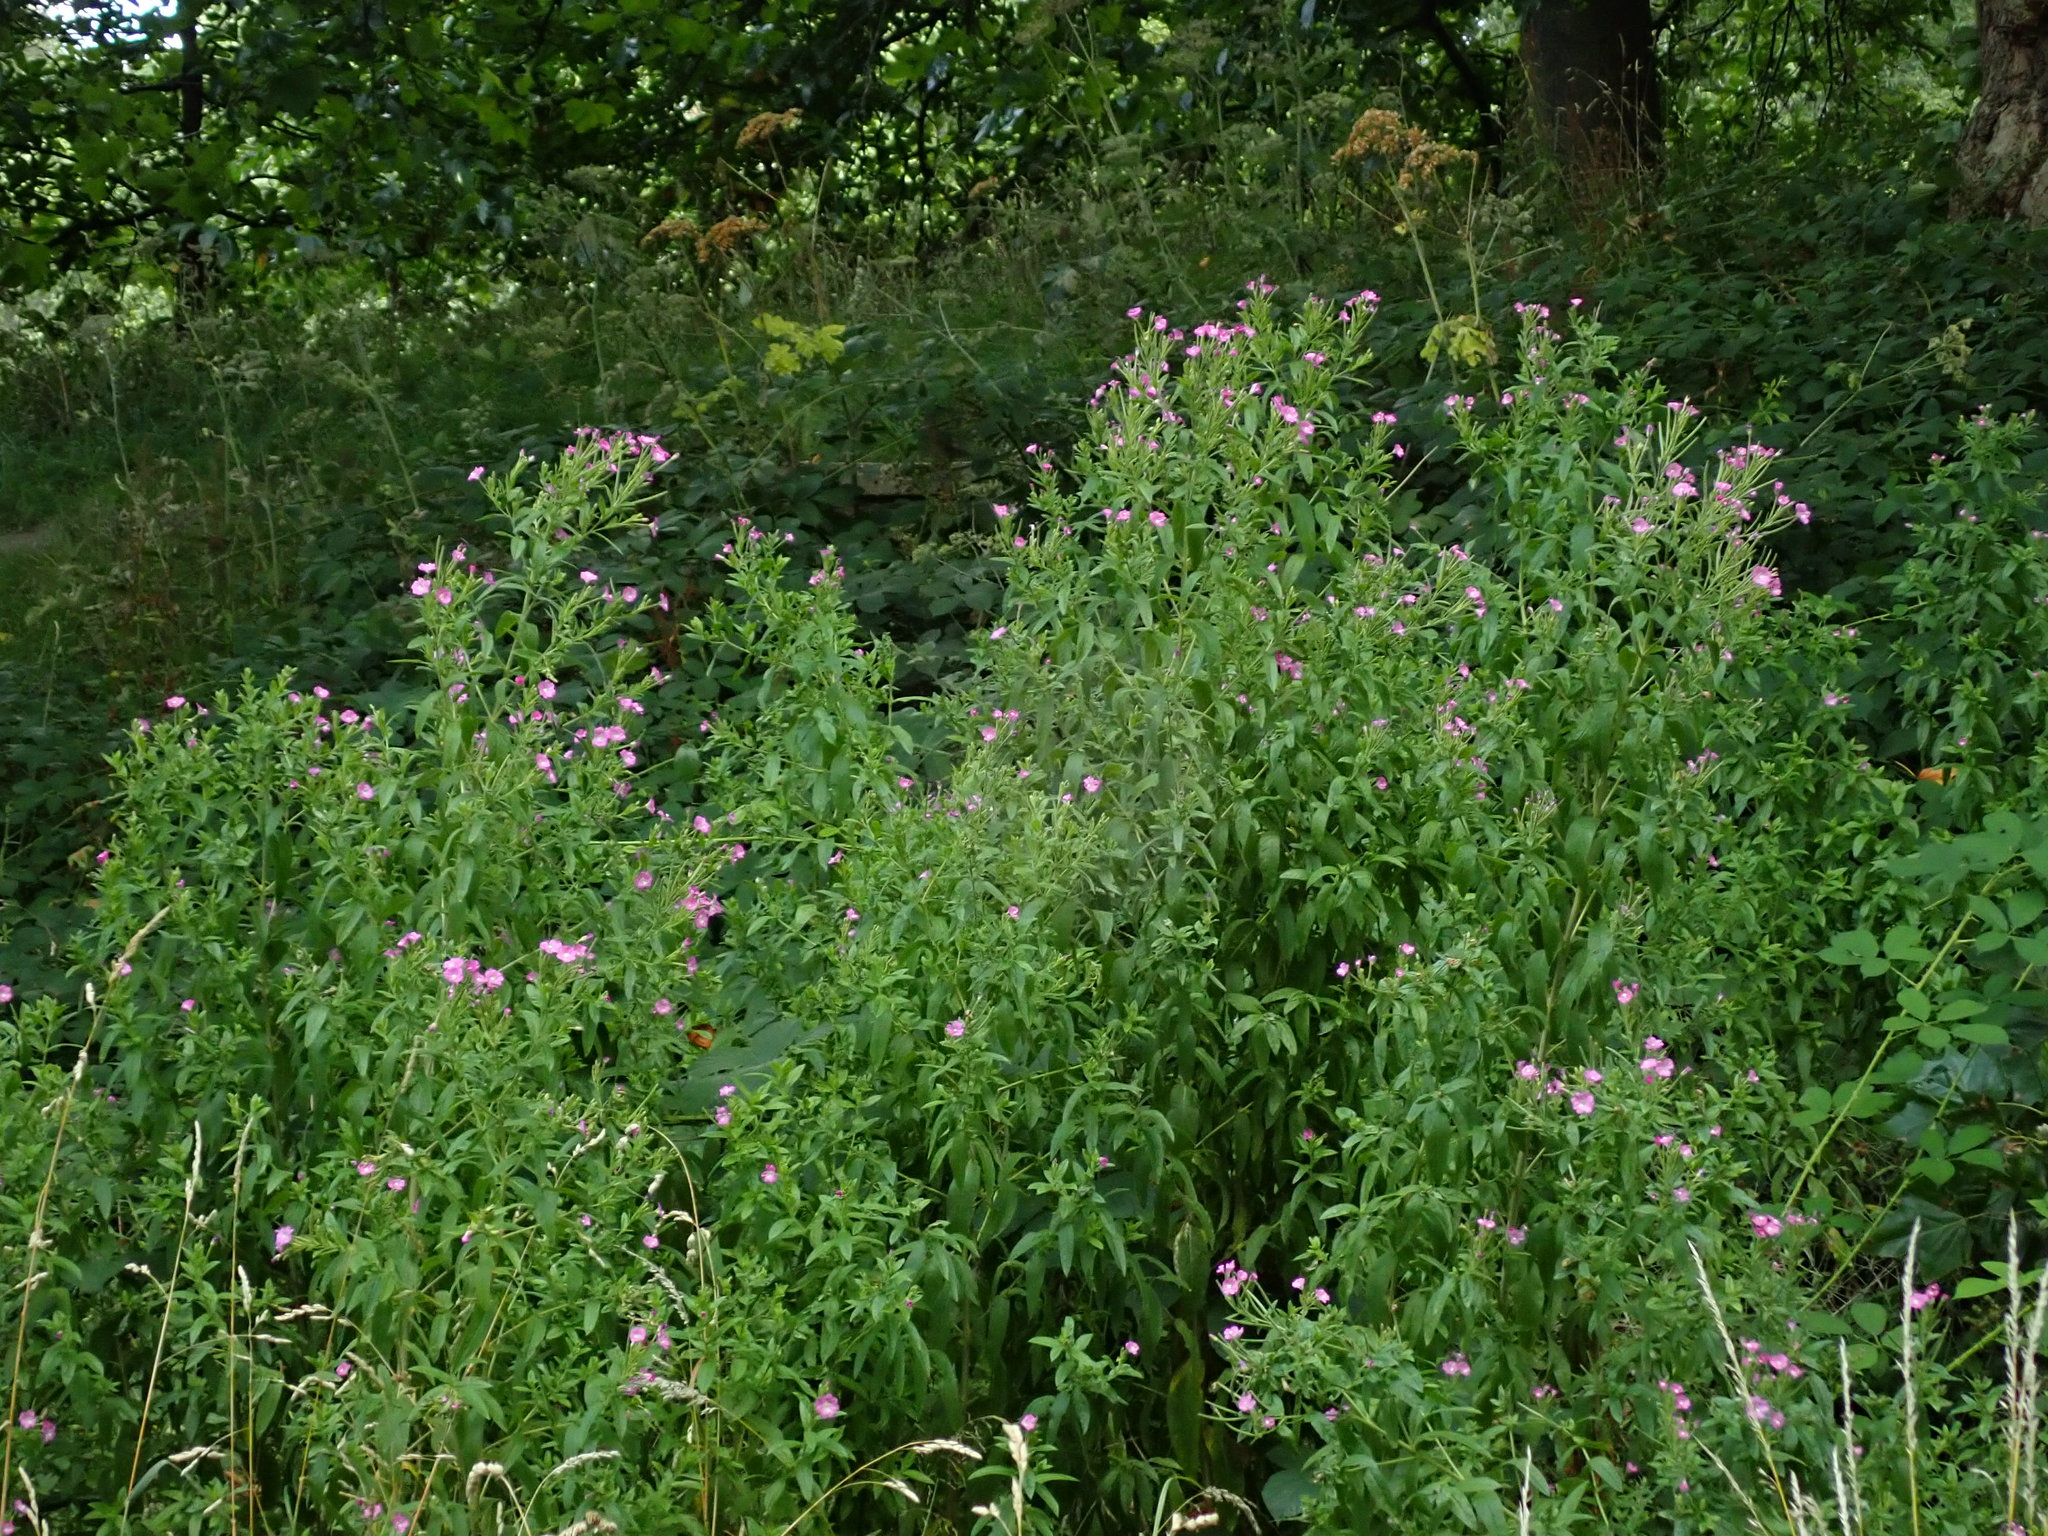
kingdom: Plantae
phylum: Tracheophyta
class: Magnoliopsida
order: Myrtales
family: Onagraceae
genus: Epilobium
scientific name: Epilobium hirsutum
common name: Great willowherb
